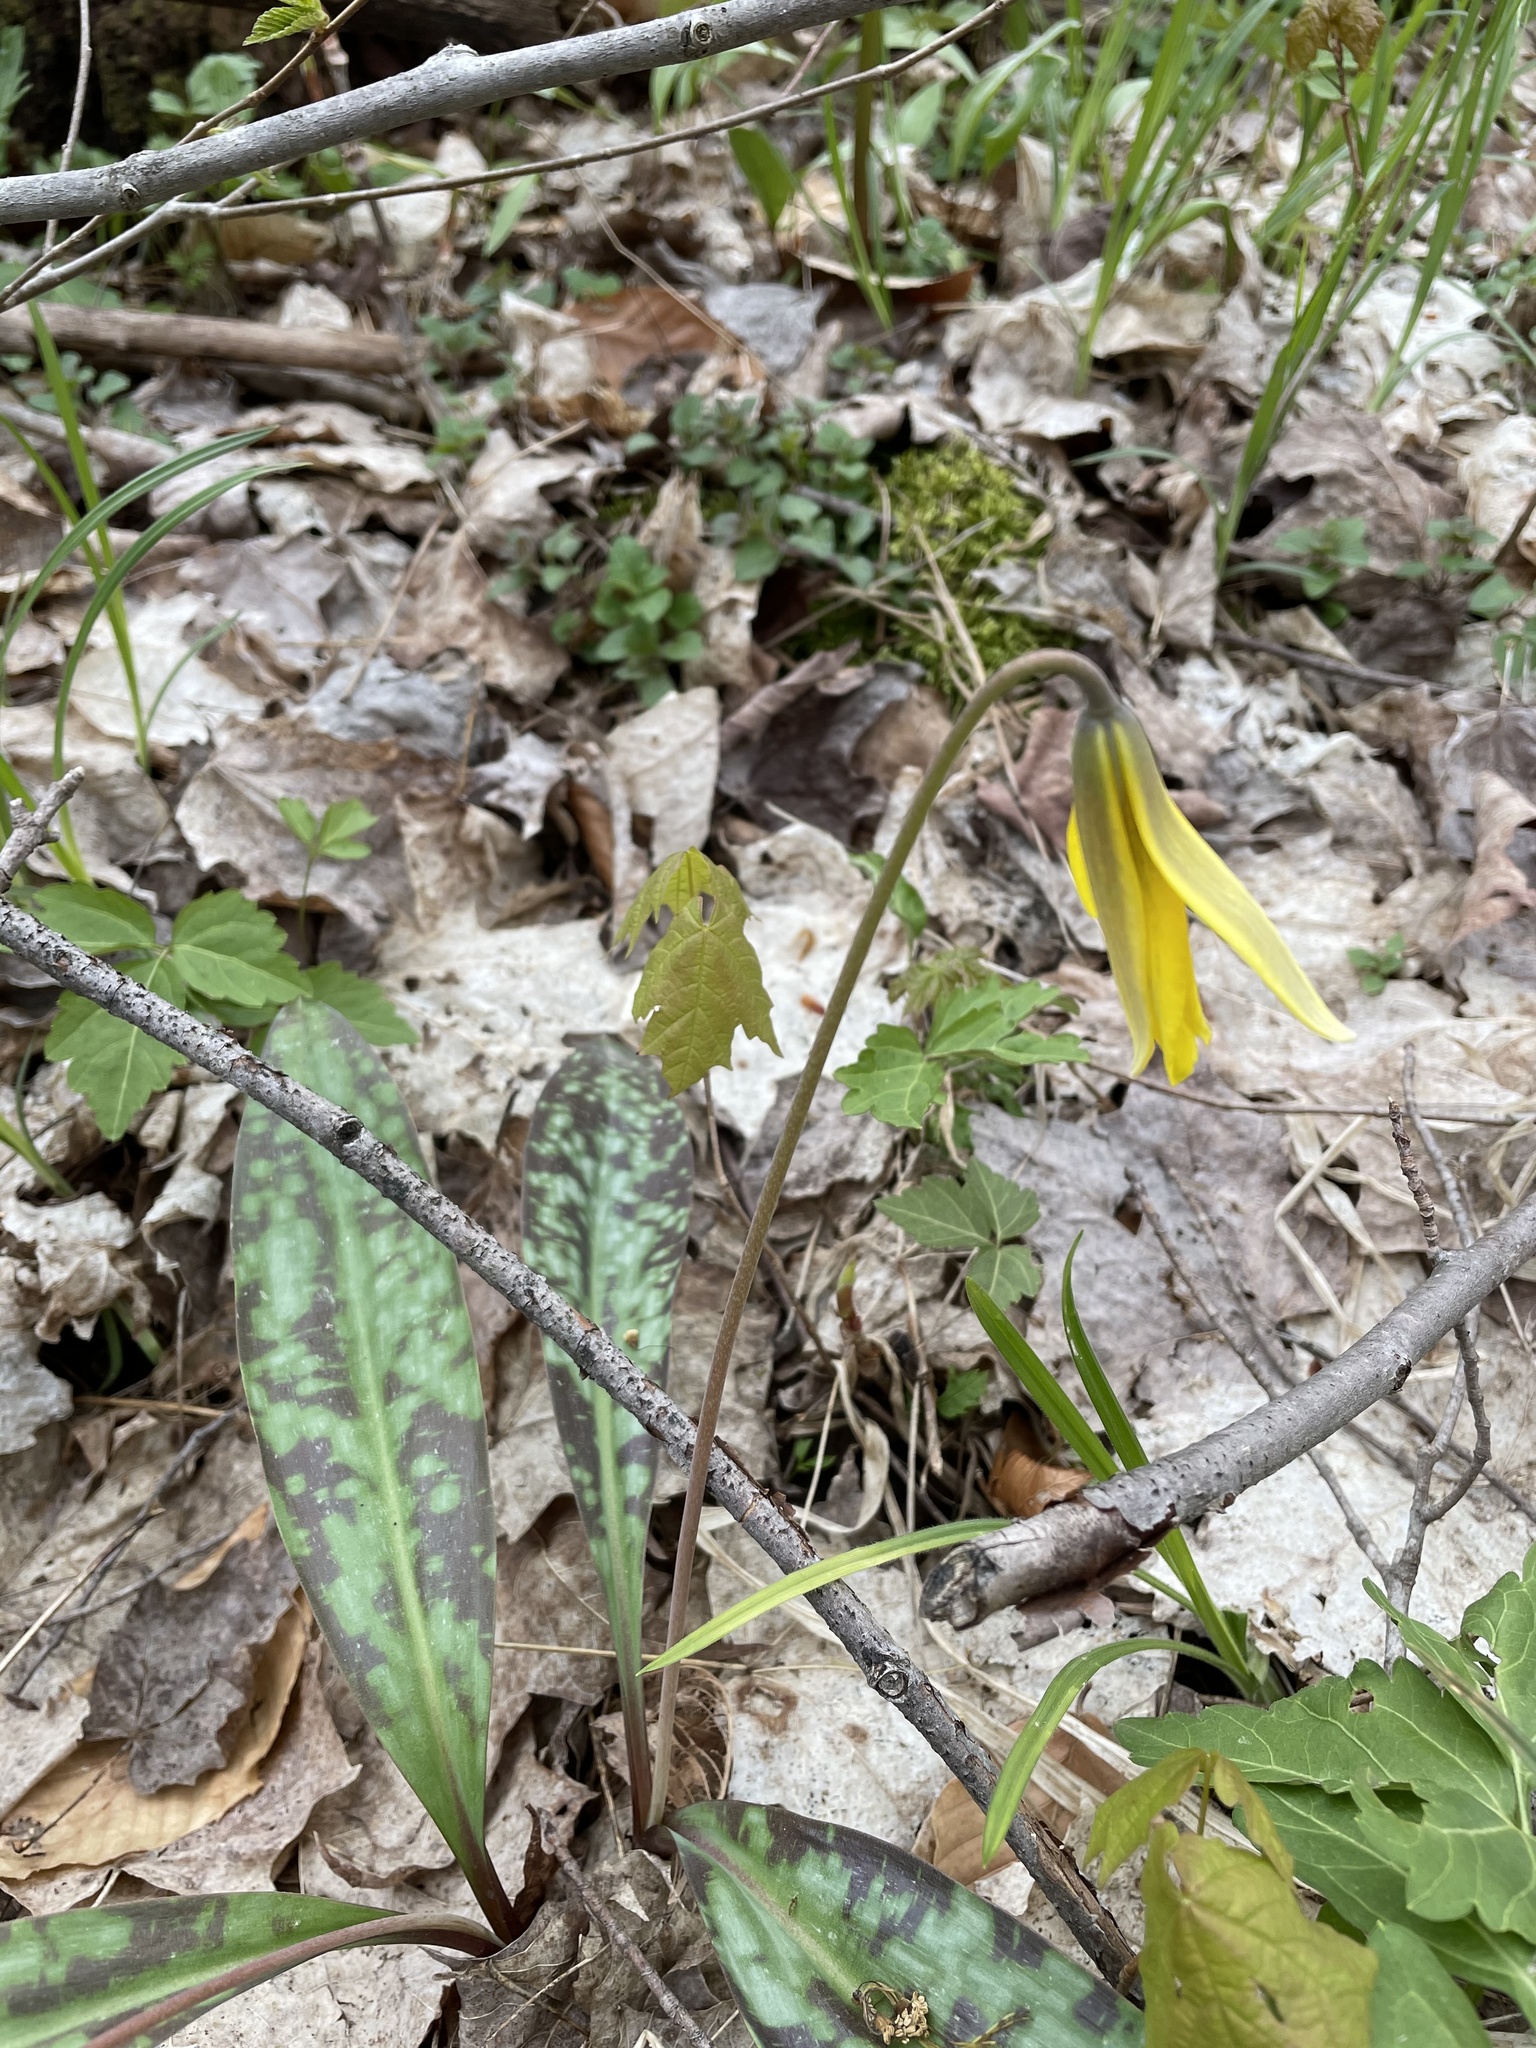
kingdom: Plantae
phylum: Tracheophyta
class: Liliopsida
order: Liliales
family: Liliaceae
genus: Erythronium
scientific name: Erythronium americanum
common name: Yellow adder's-tongue
